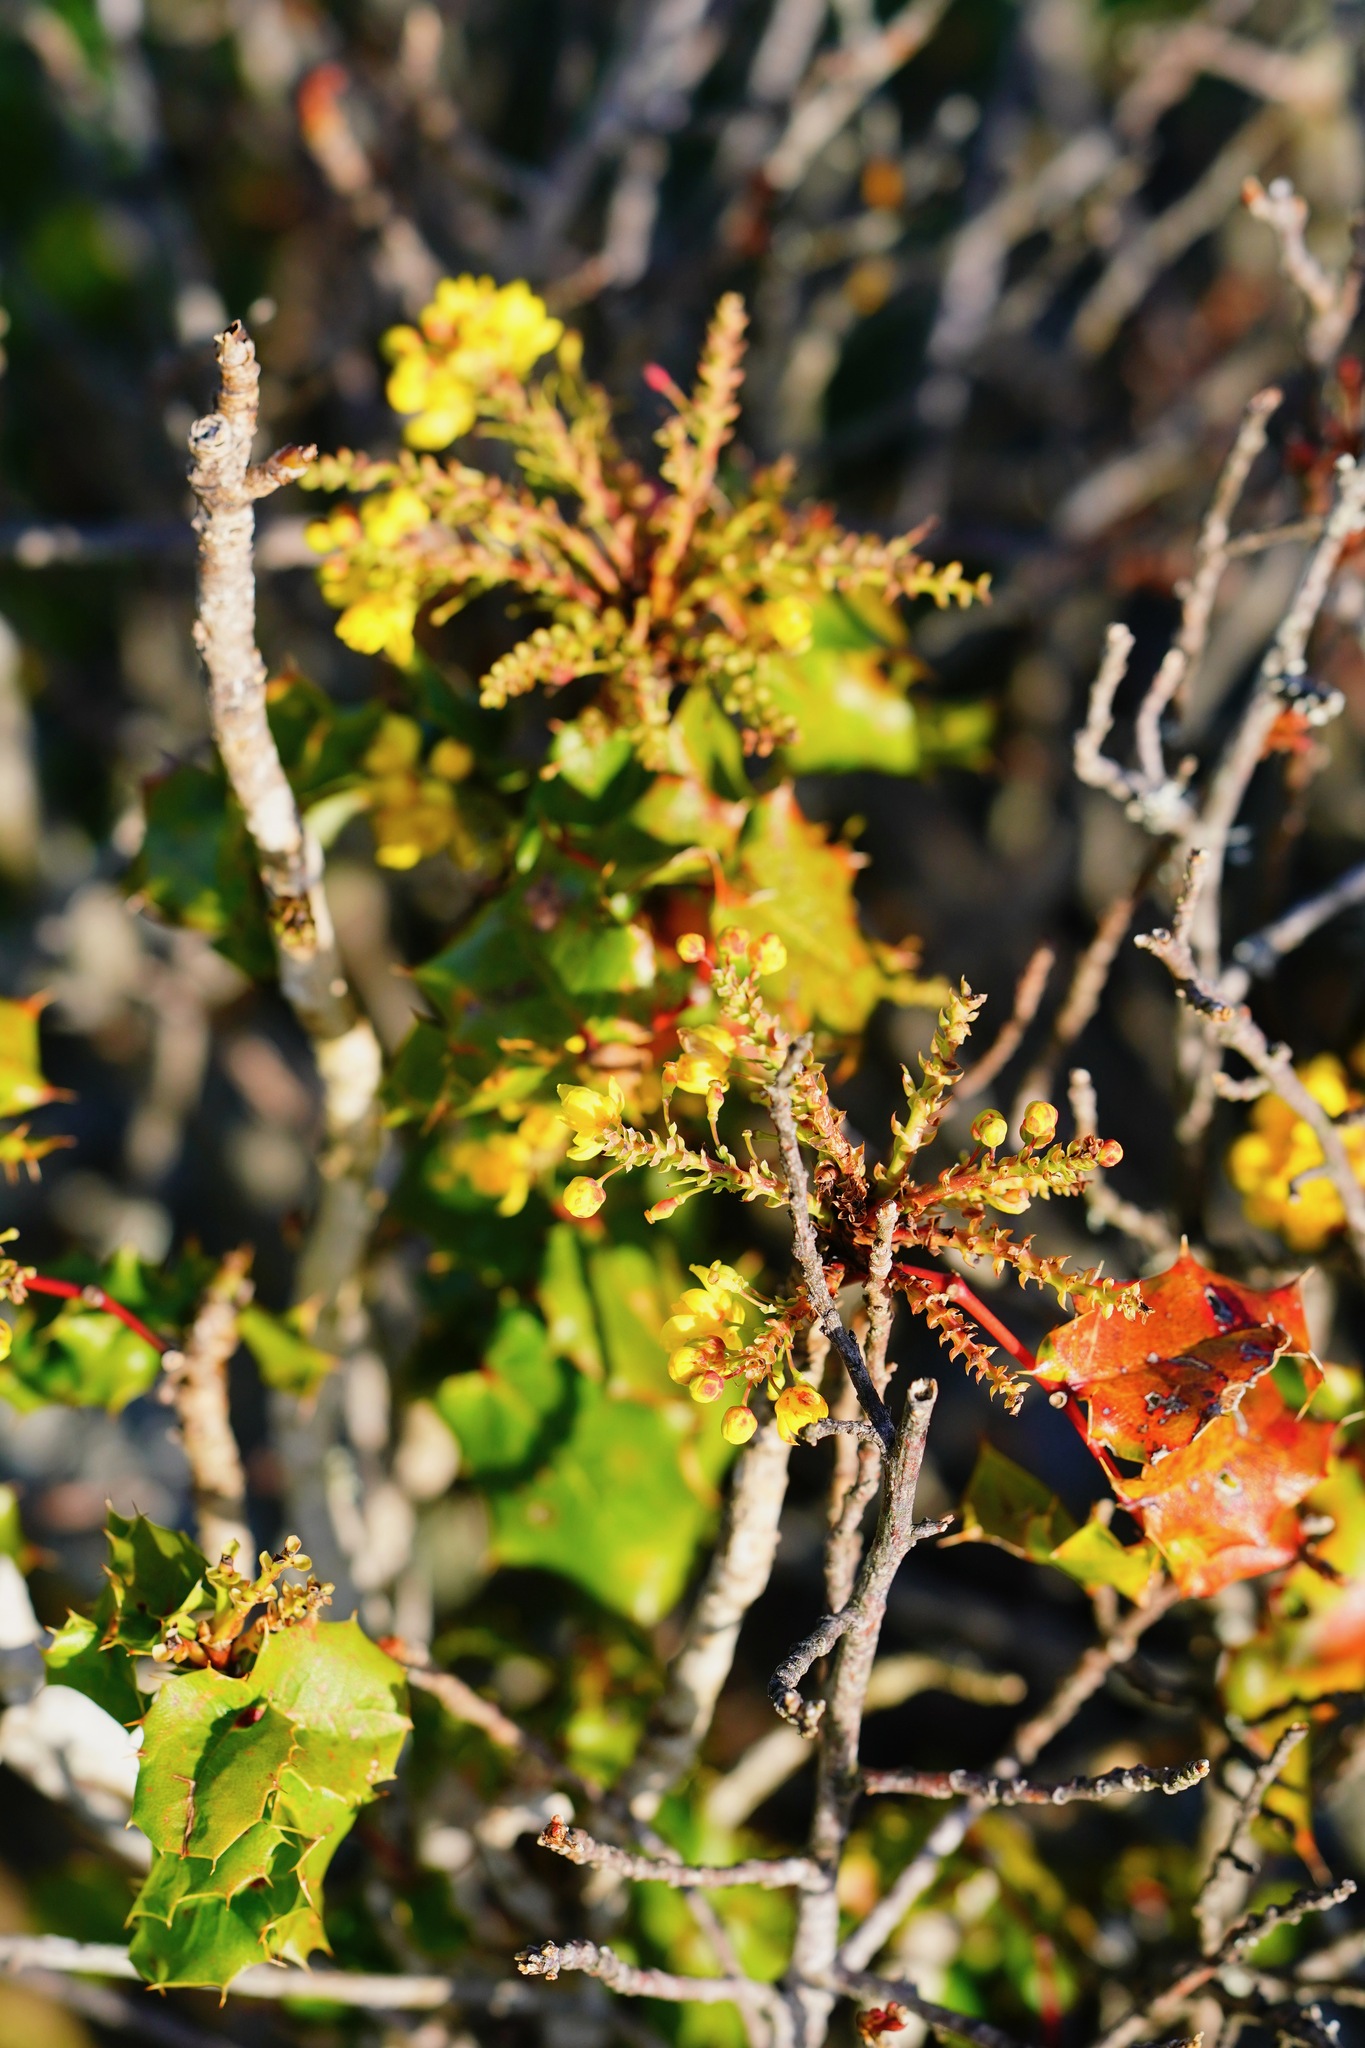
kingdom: Plantae
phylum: Tracheophyta
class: Magnoliopsida
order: Ranunculales
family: Berberidaceae
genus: Mahonia
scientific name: Mahonia
